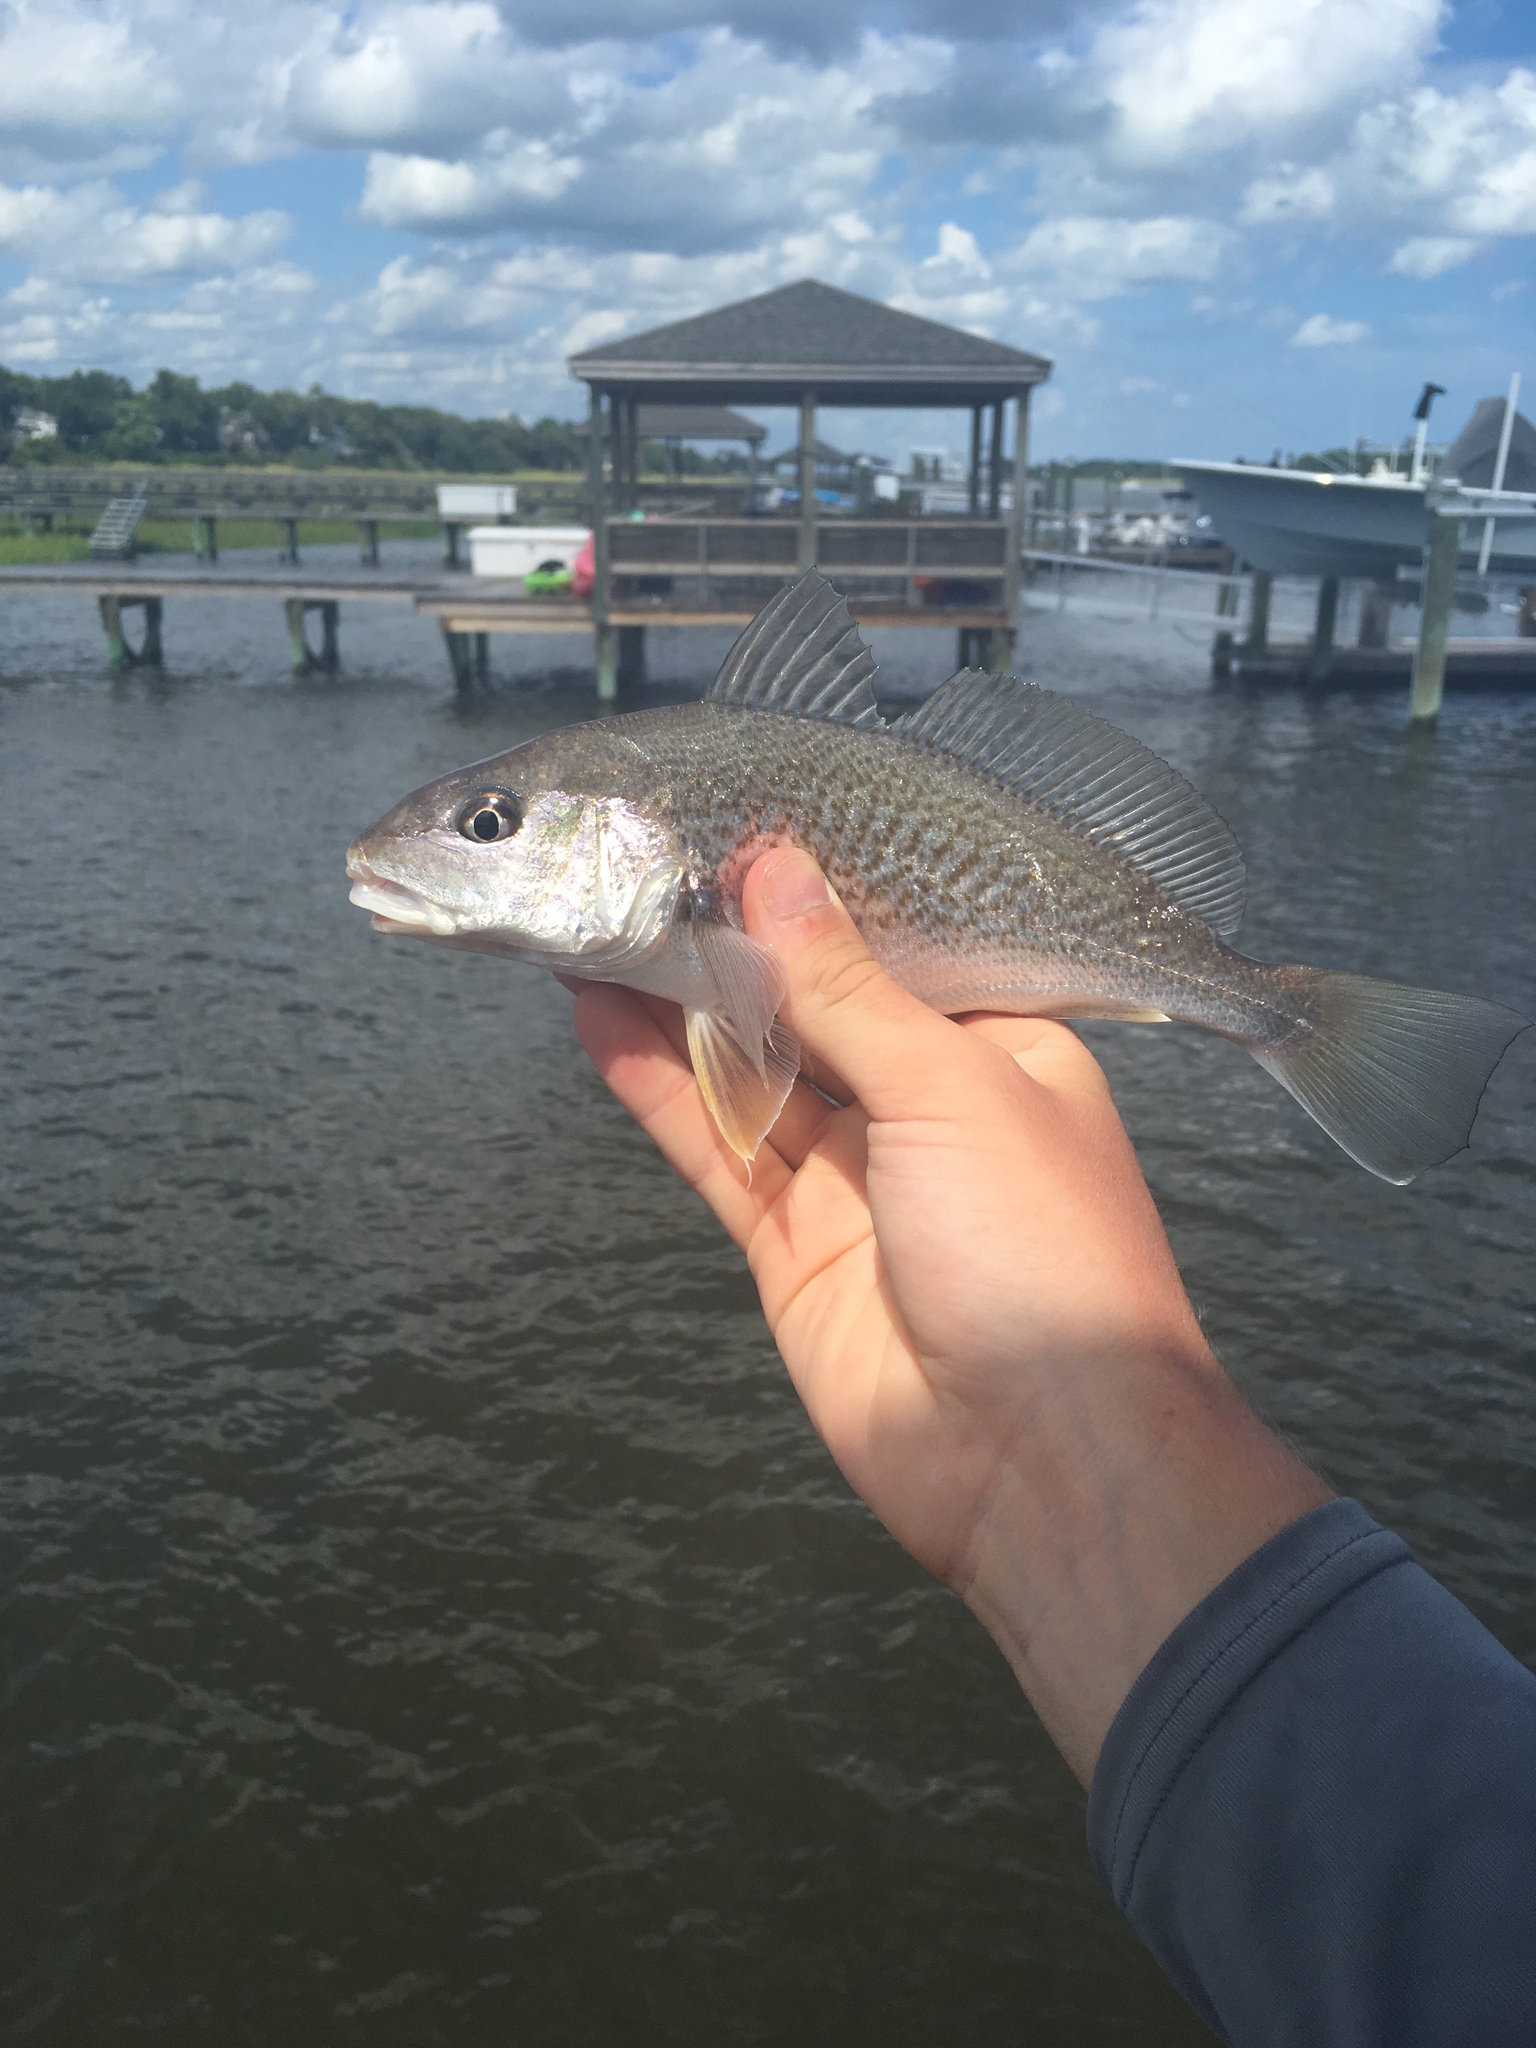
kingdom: Animalia
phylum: Chordata
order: Perciformes
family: Sciaenidae
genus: Micropogonias
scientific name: Micropogonias undulatus
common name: Atlantic croaker
